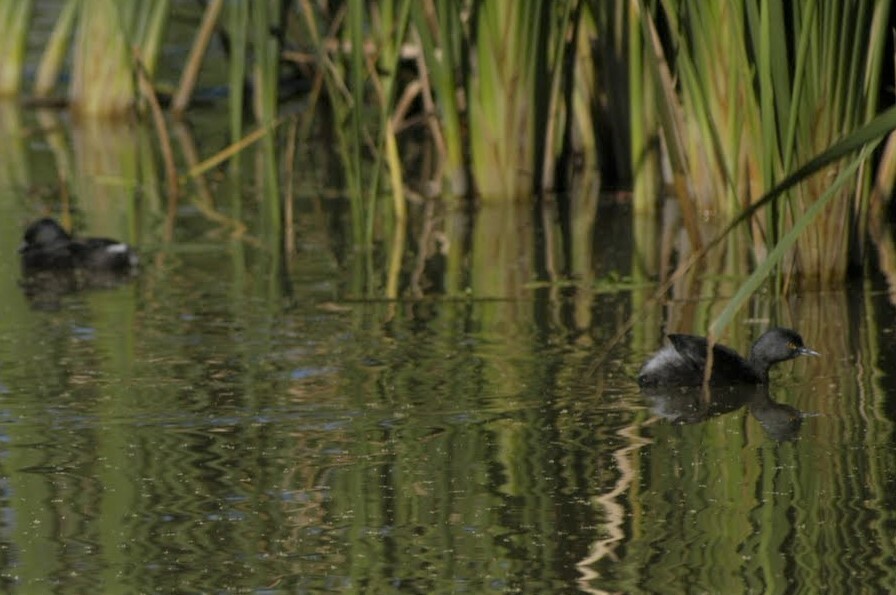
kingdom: Animalia
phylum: Chordata
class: Aves
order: Podicipediformes
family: Podicipedidae
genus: Tachybaptus
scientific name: Tachybaptus dominicus
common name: Least grebe
